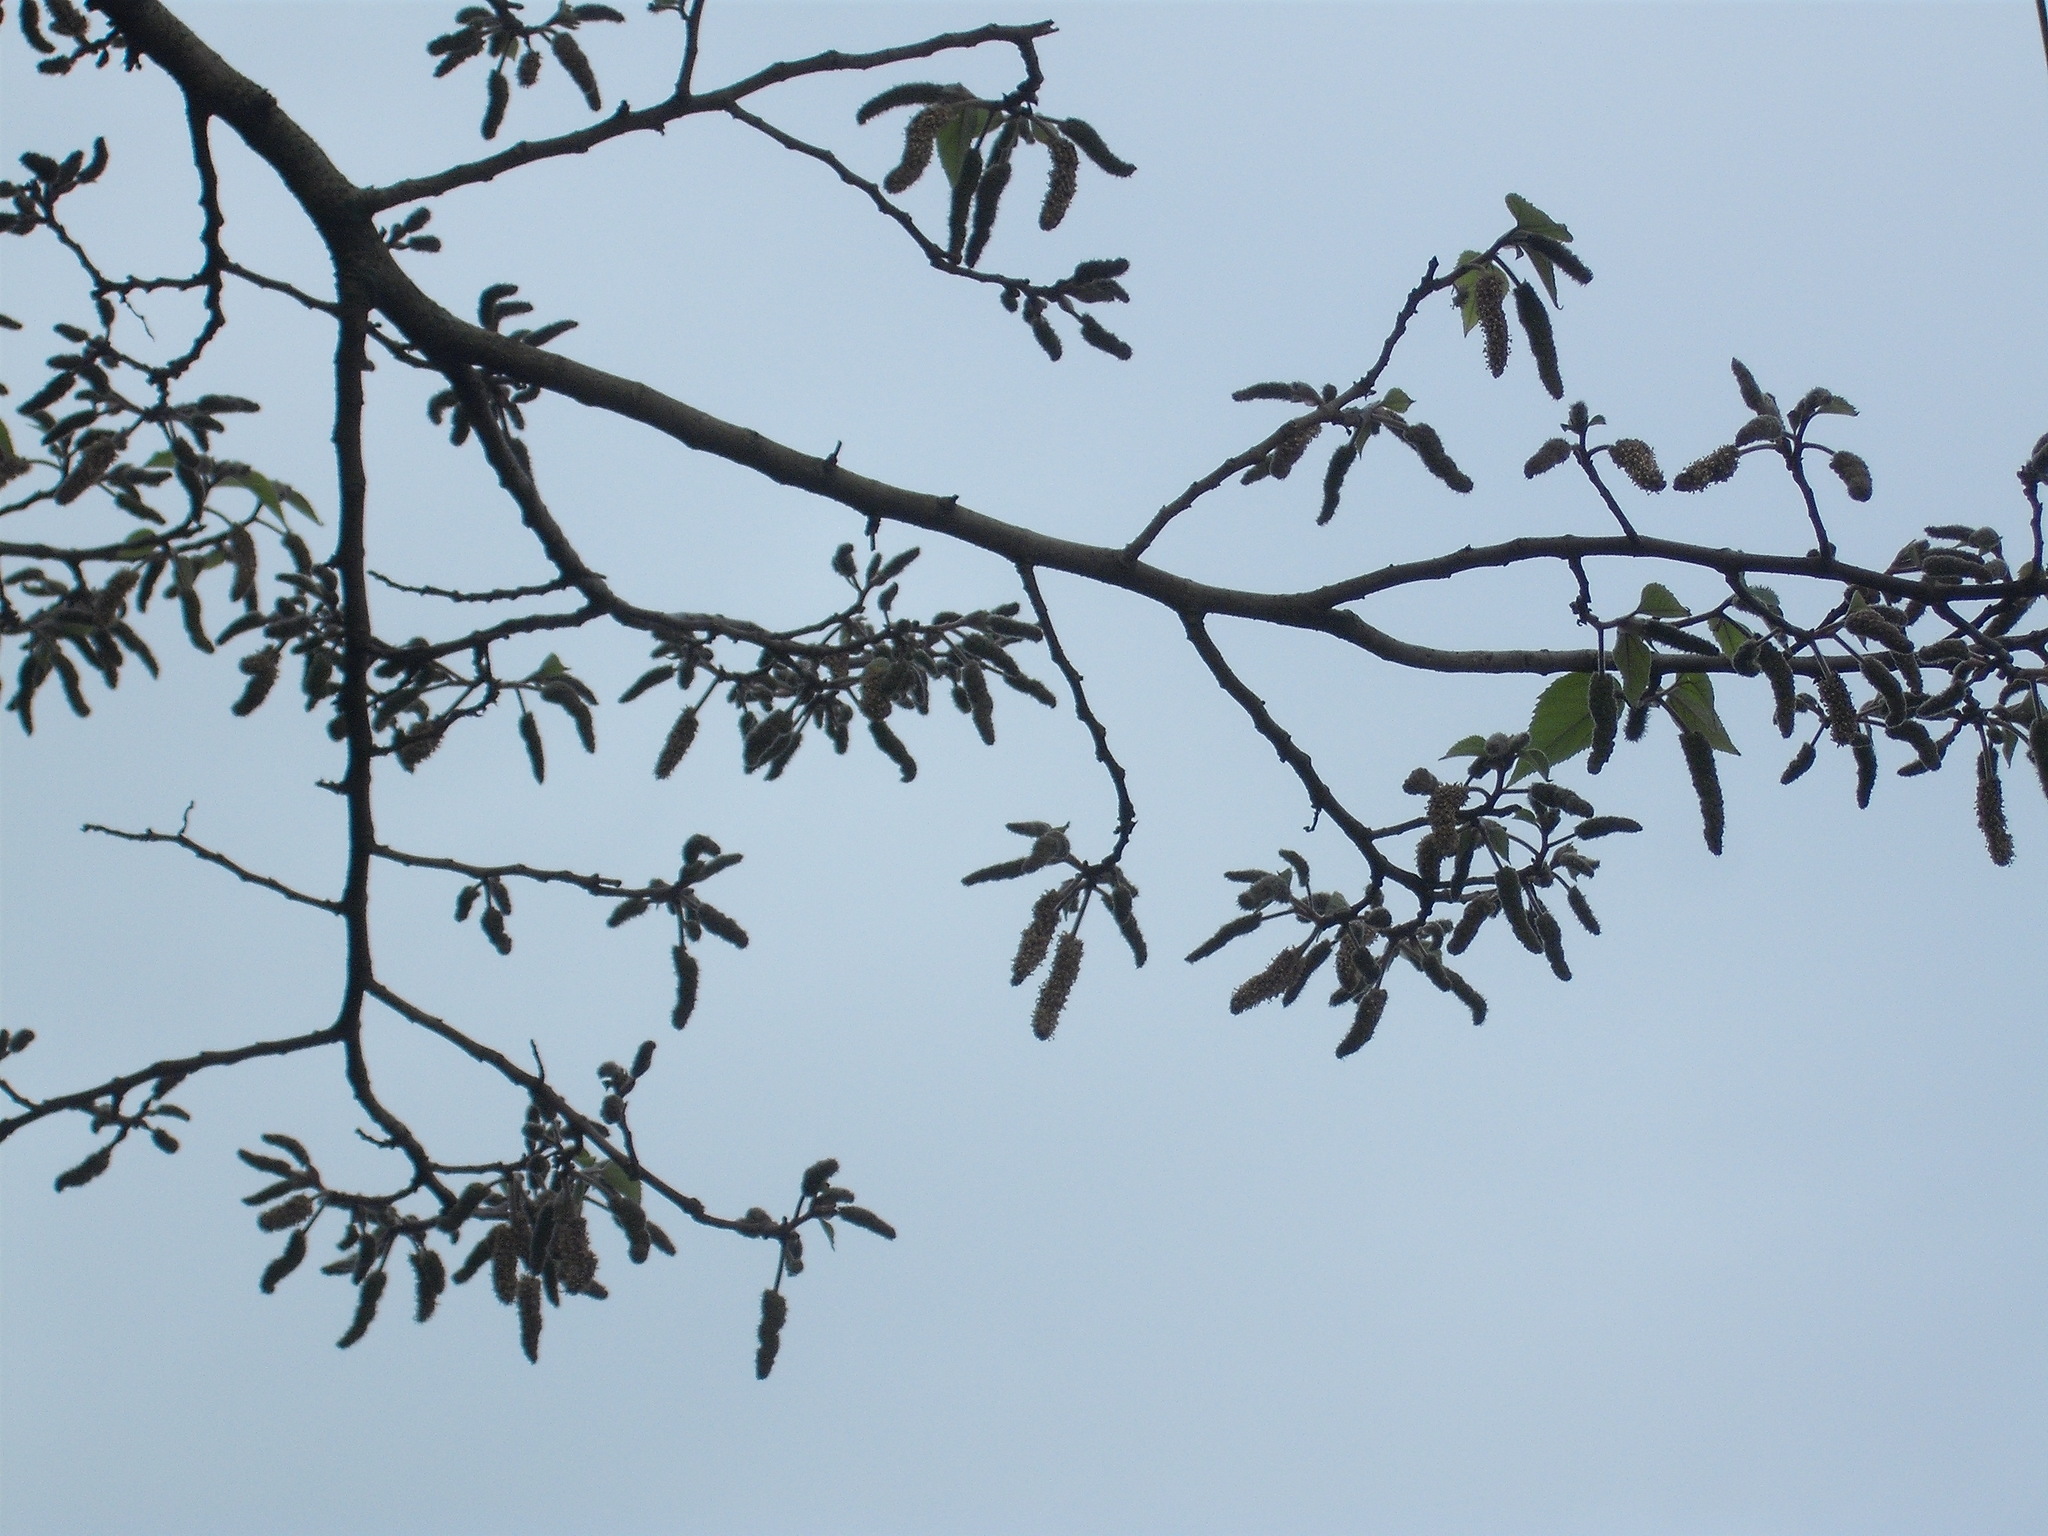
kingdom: Plantae
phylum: Tracheophyta
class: Magnoliopsida
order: Rosales
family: Moraceae
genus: Broussonetia
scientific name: Broussonetia papyrifera
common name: Paper mulberry
